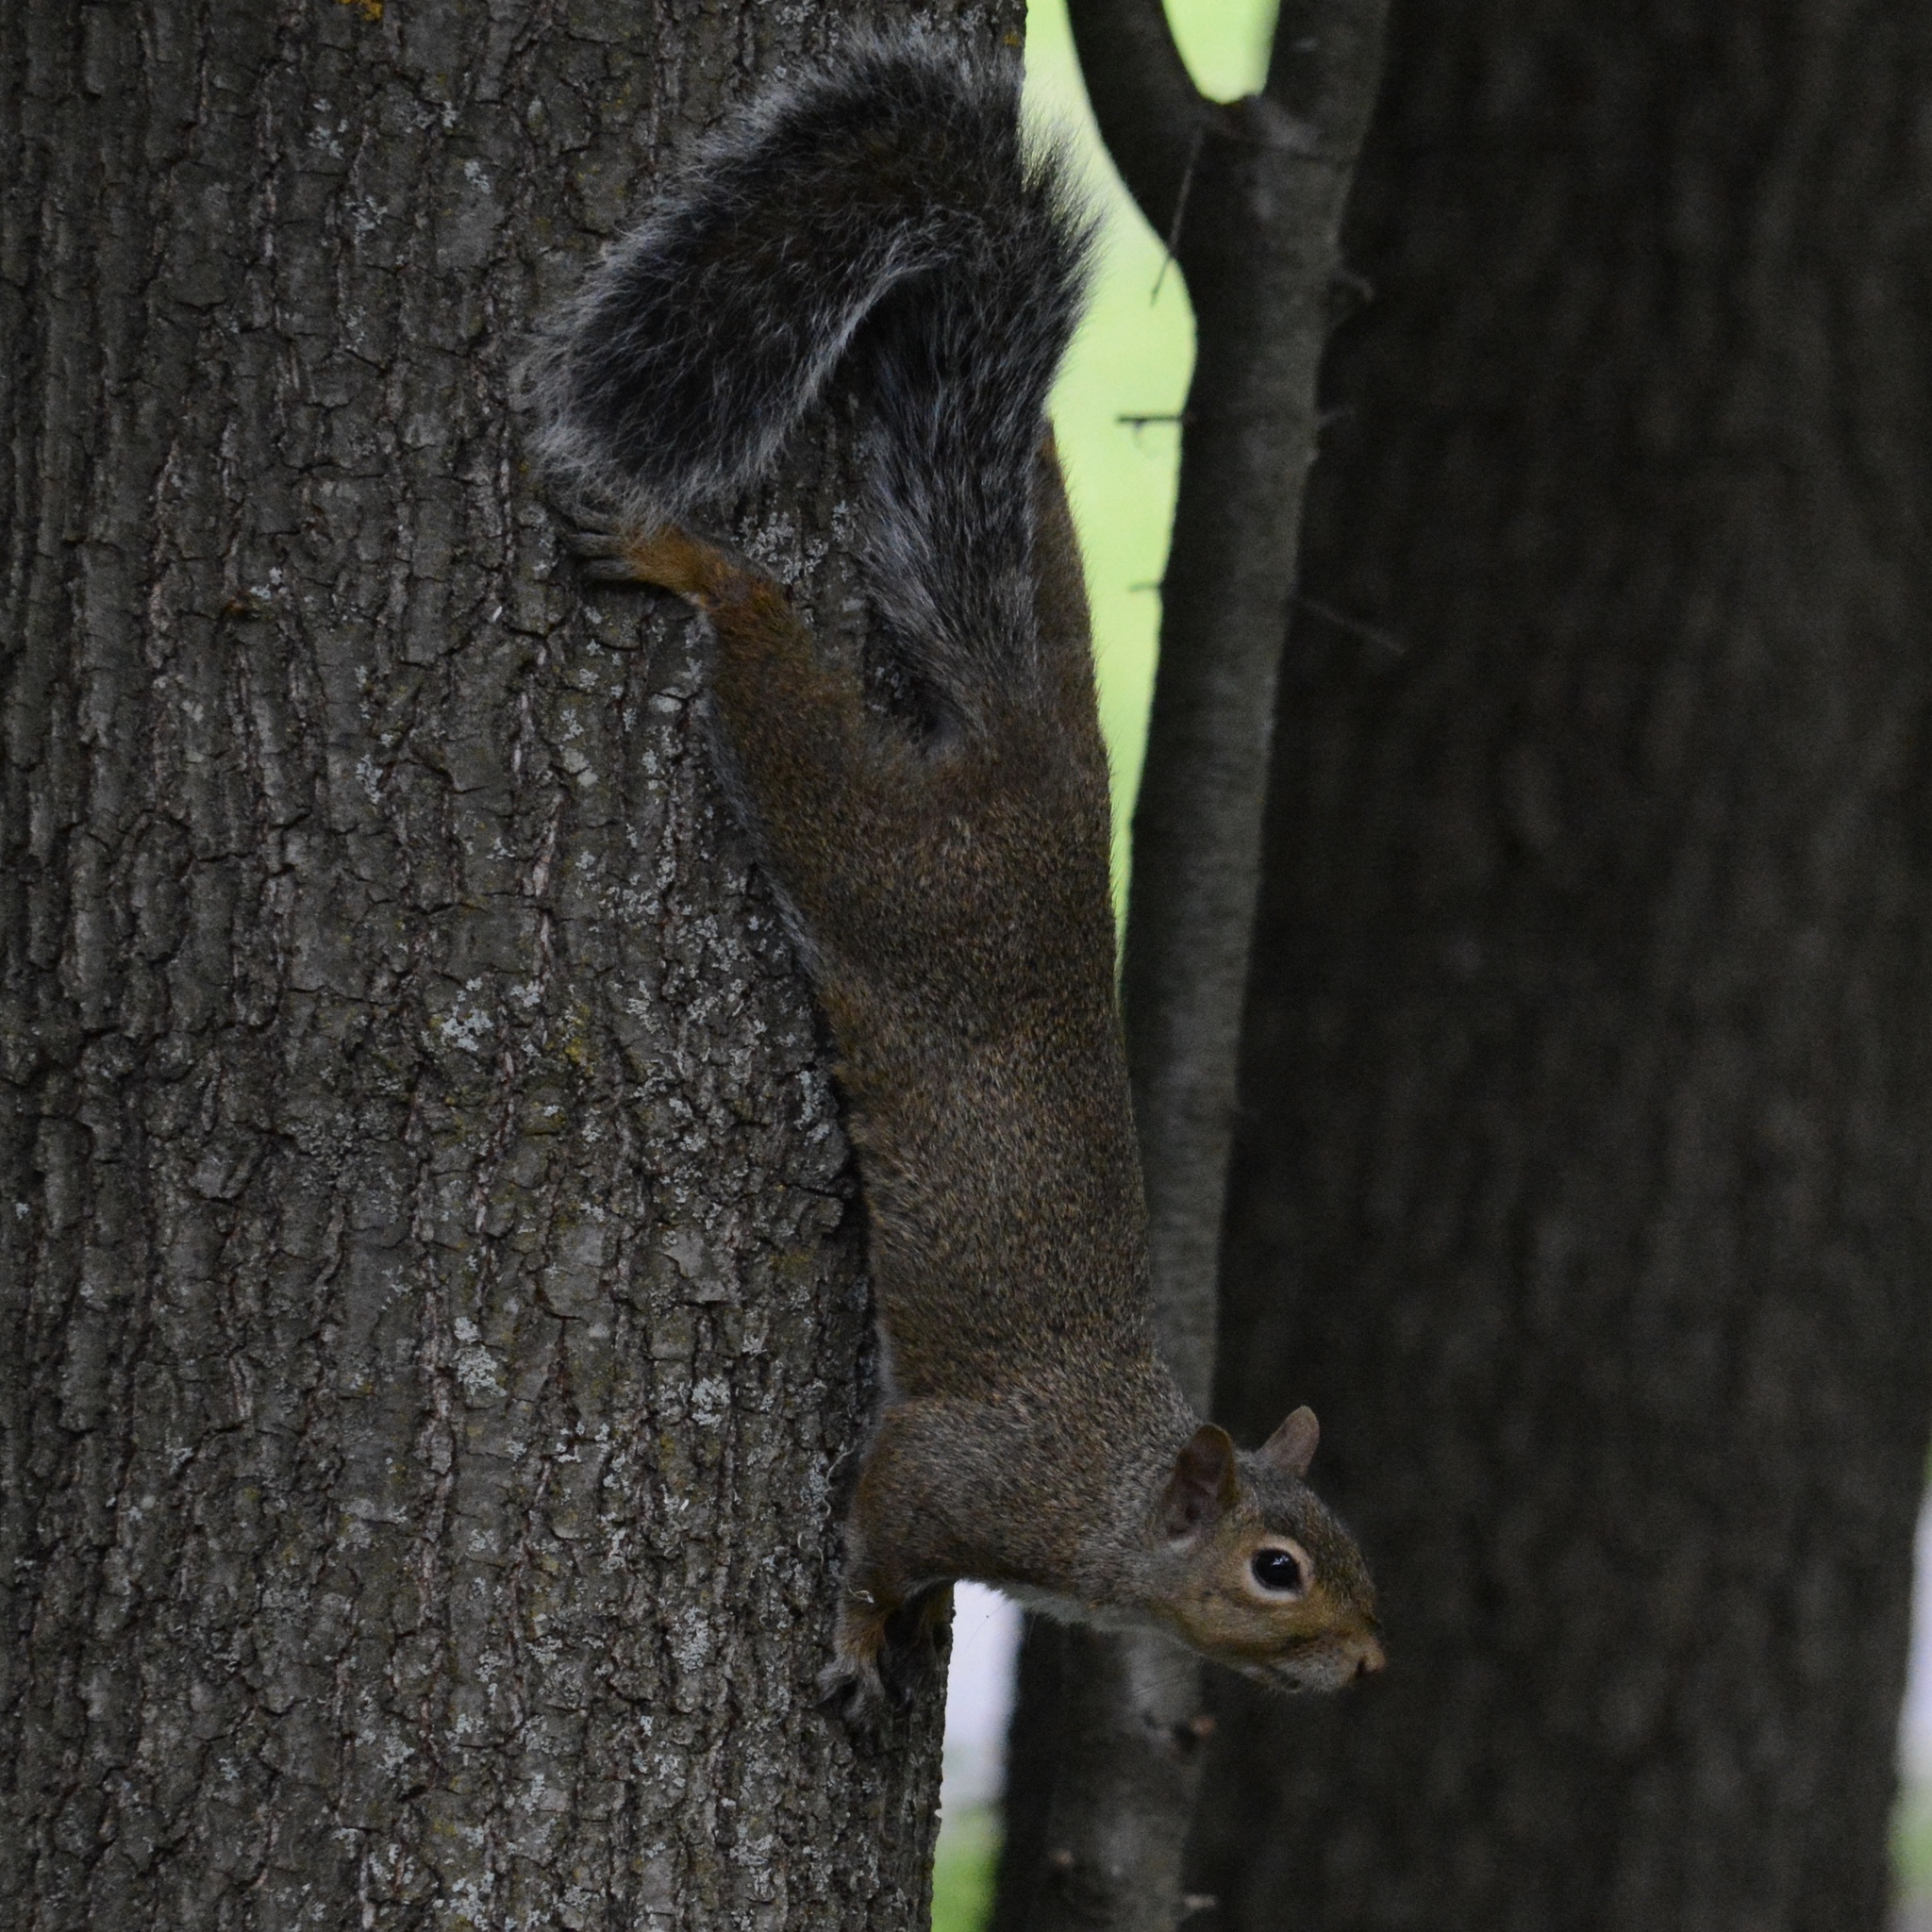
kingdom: Animalia
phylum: Chordata
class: Mammalia
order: Rodentia
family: Sciuridae
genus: Sciurus
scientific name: Sciurus carolinensis
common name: Eastern gray squirrel
